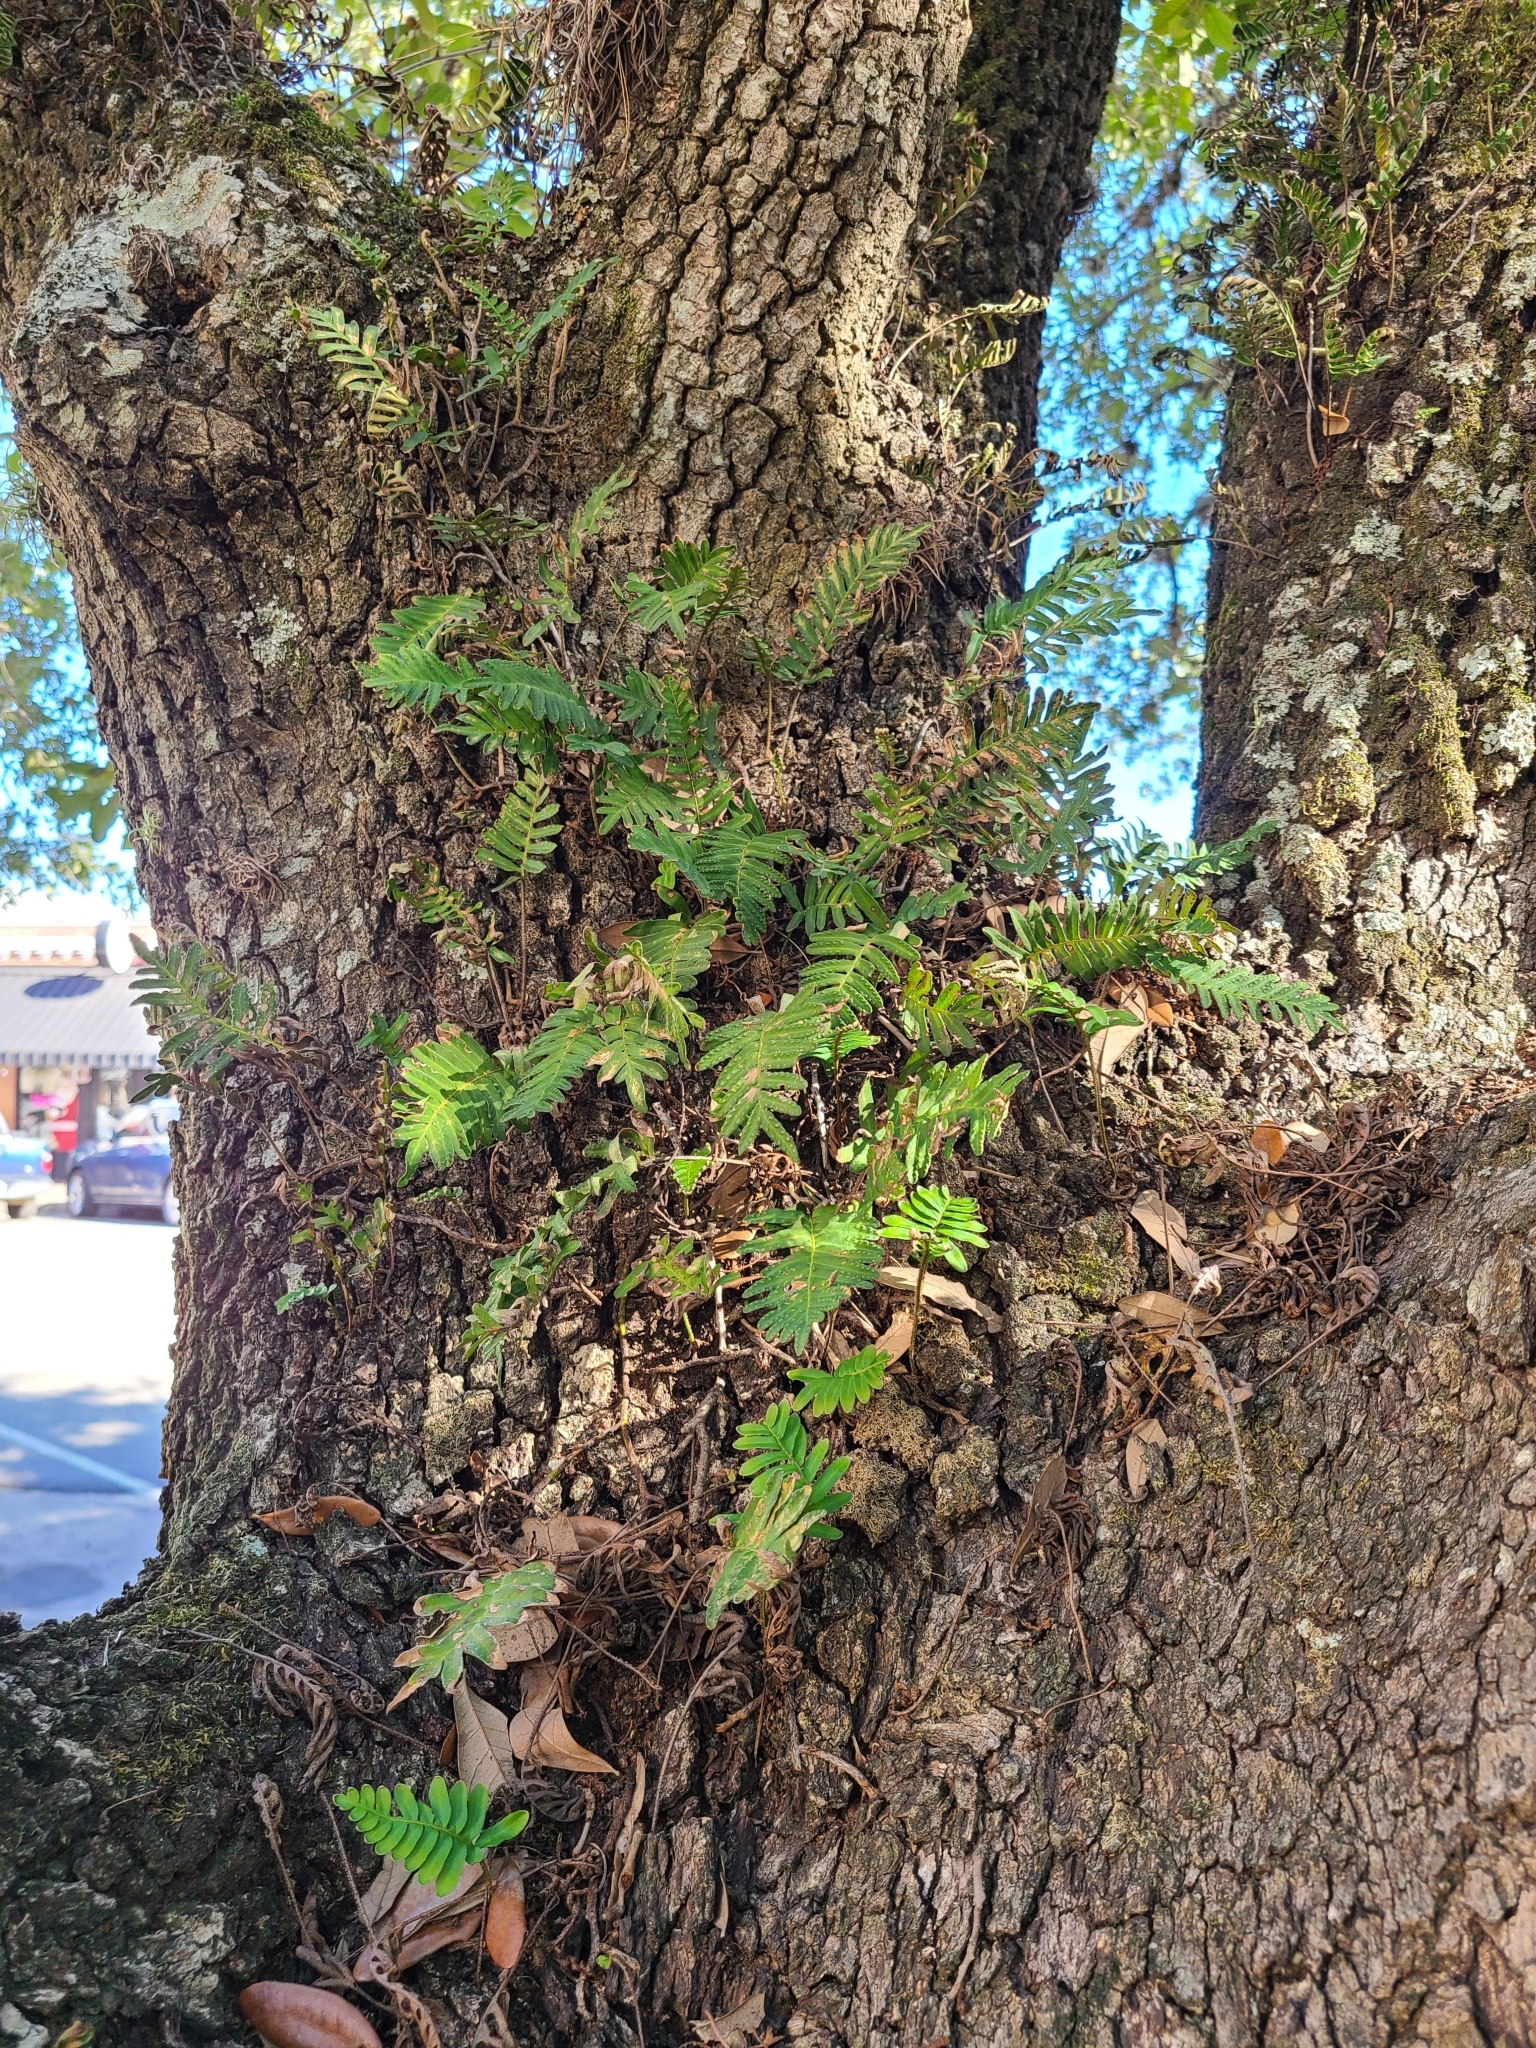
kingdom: Plantae
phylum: Tracheophyta
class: Polypodiopsida
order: Polypodiales
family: Polypodiaceae
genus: Pleopeltis
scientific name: Pleopeltis michauxiana
